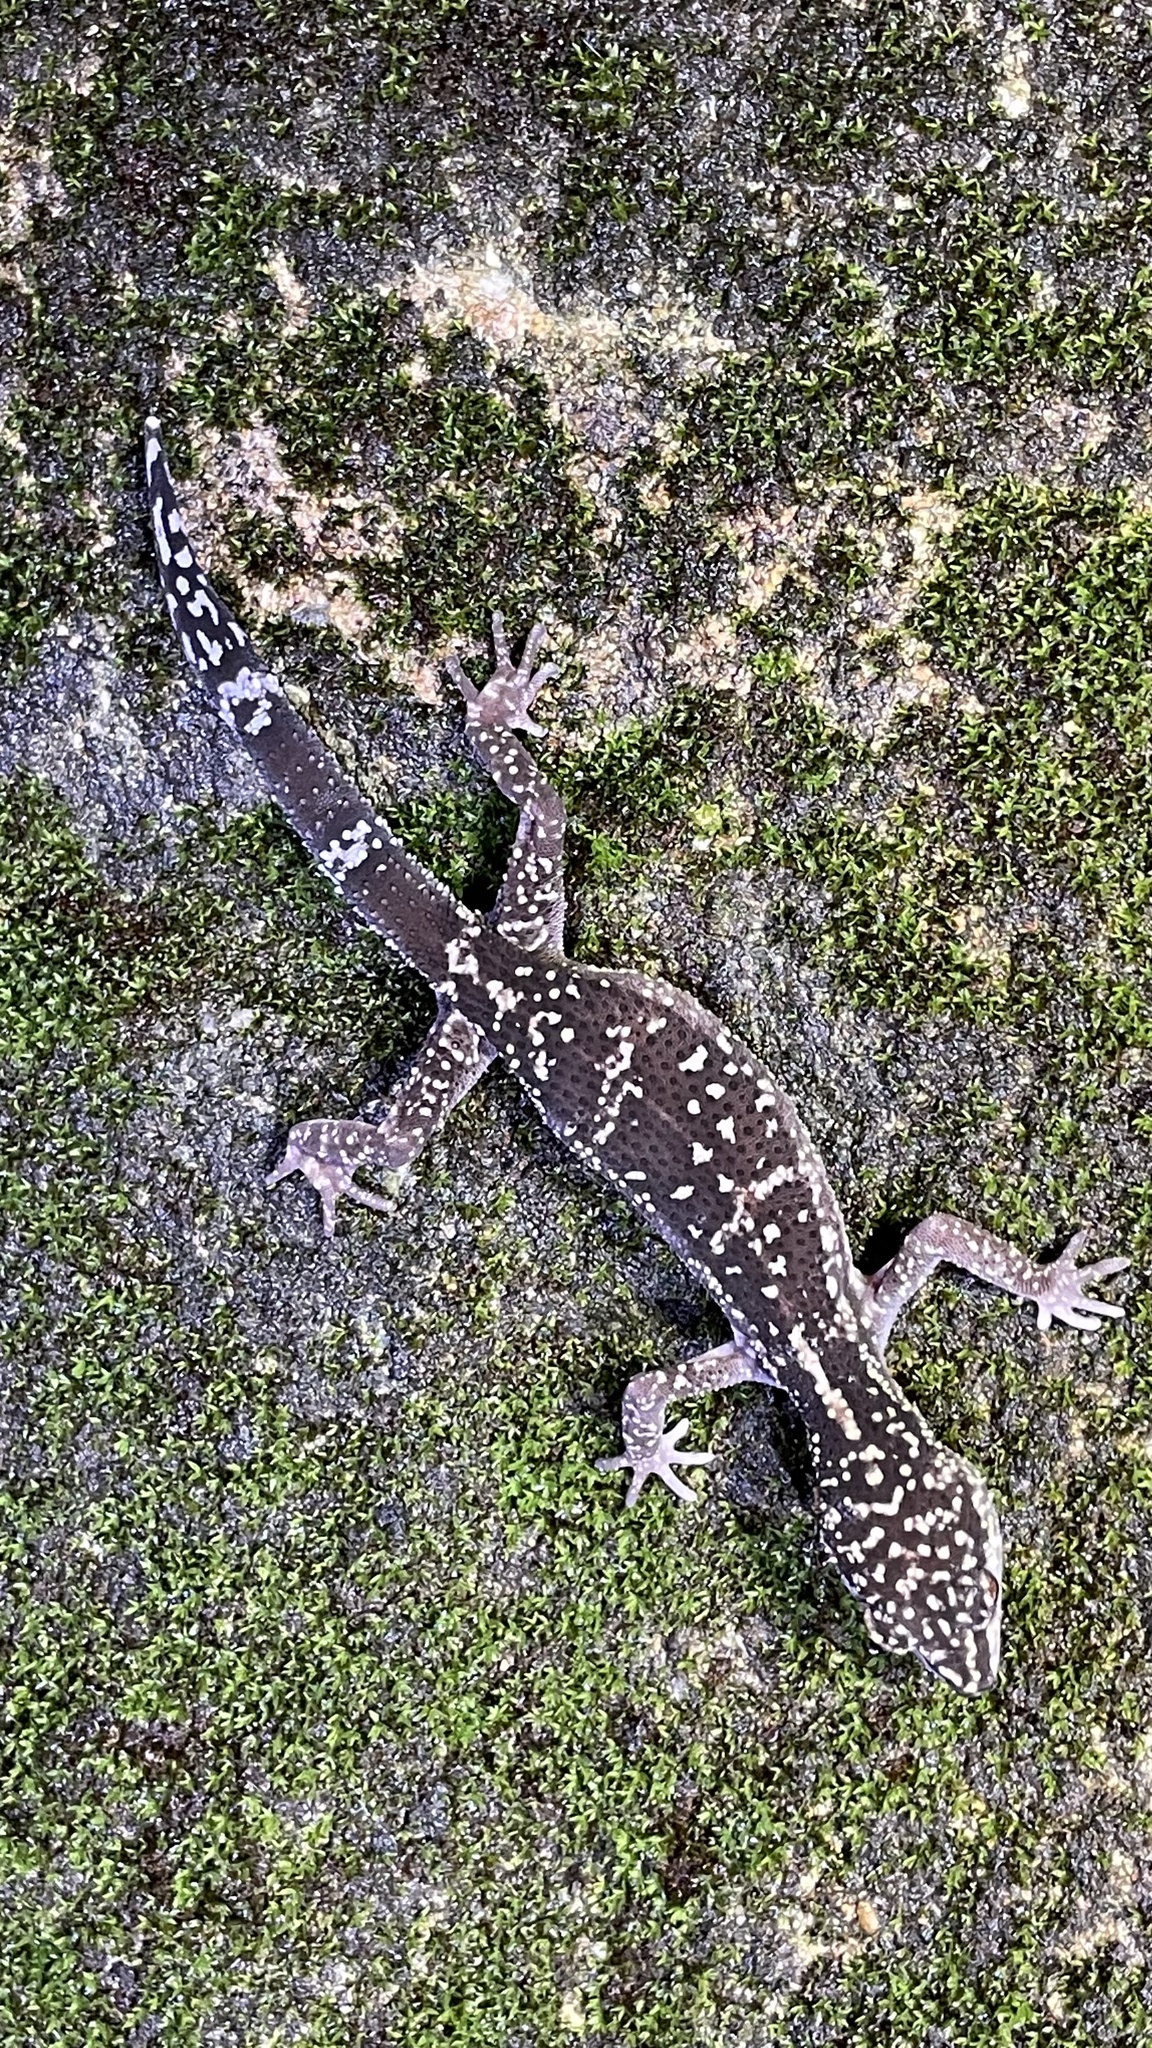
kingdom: Animalia
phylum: Chordata
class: Squamata
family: Eublepharidae
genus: Goniurosaurus
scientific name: Goniurosaurus kuroiwae
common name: Tokashiki gecko
